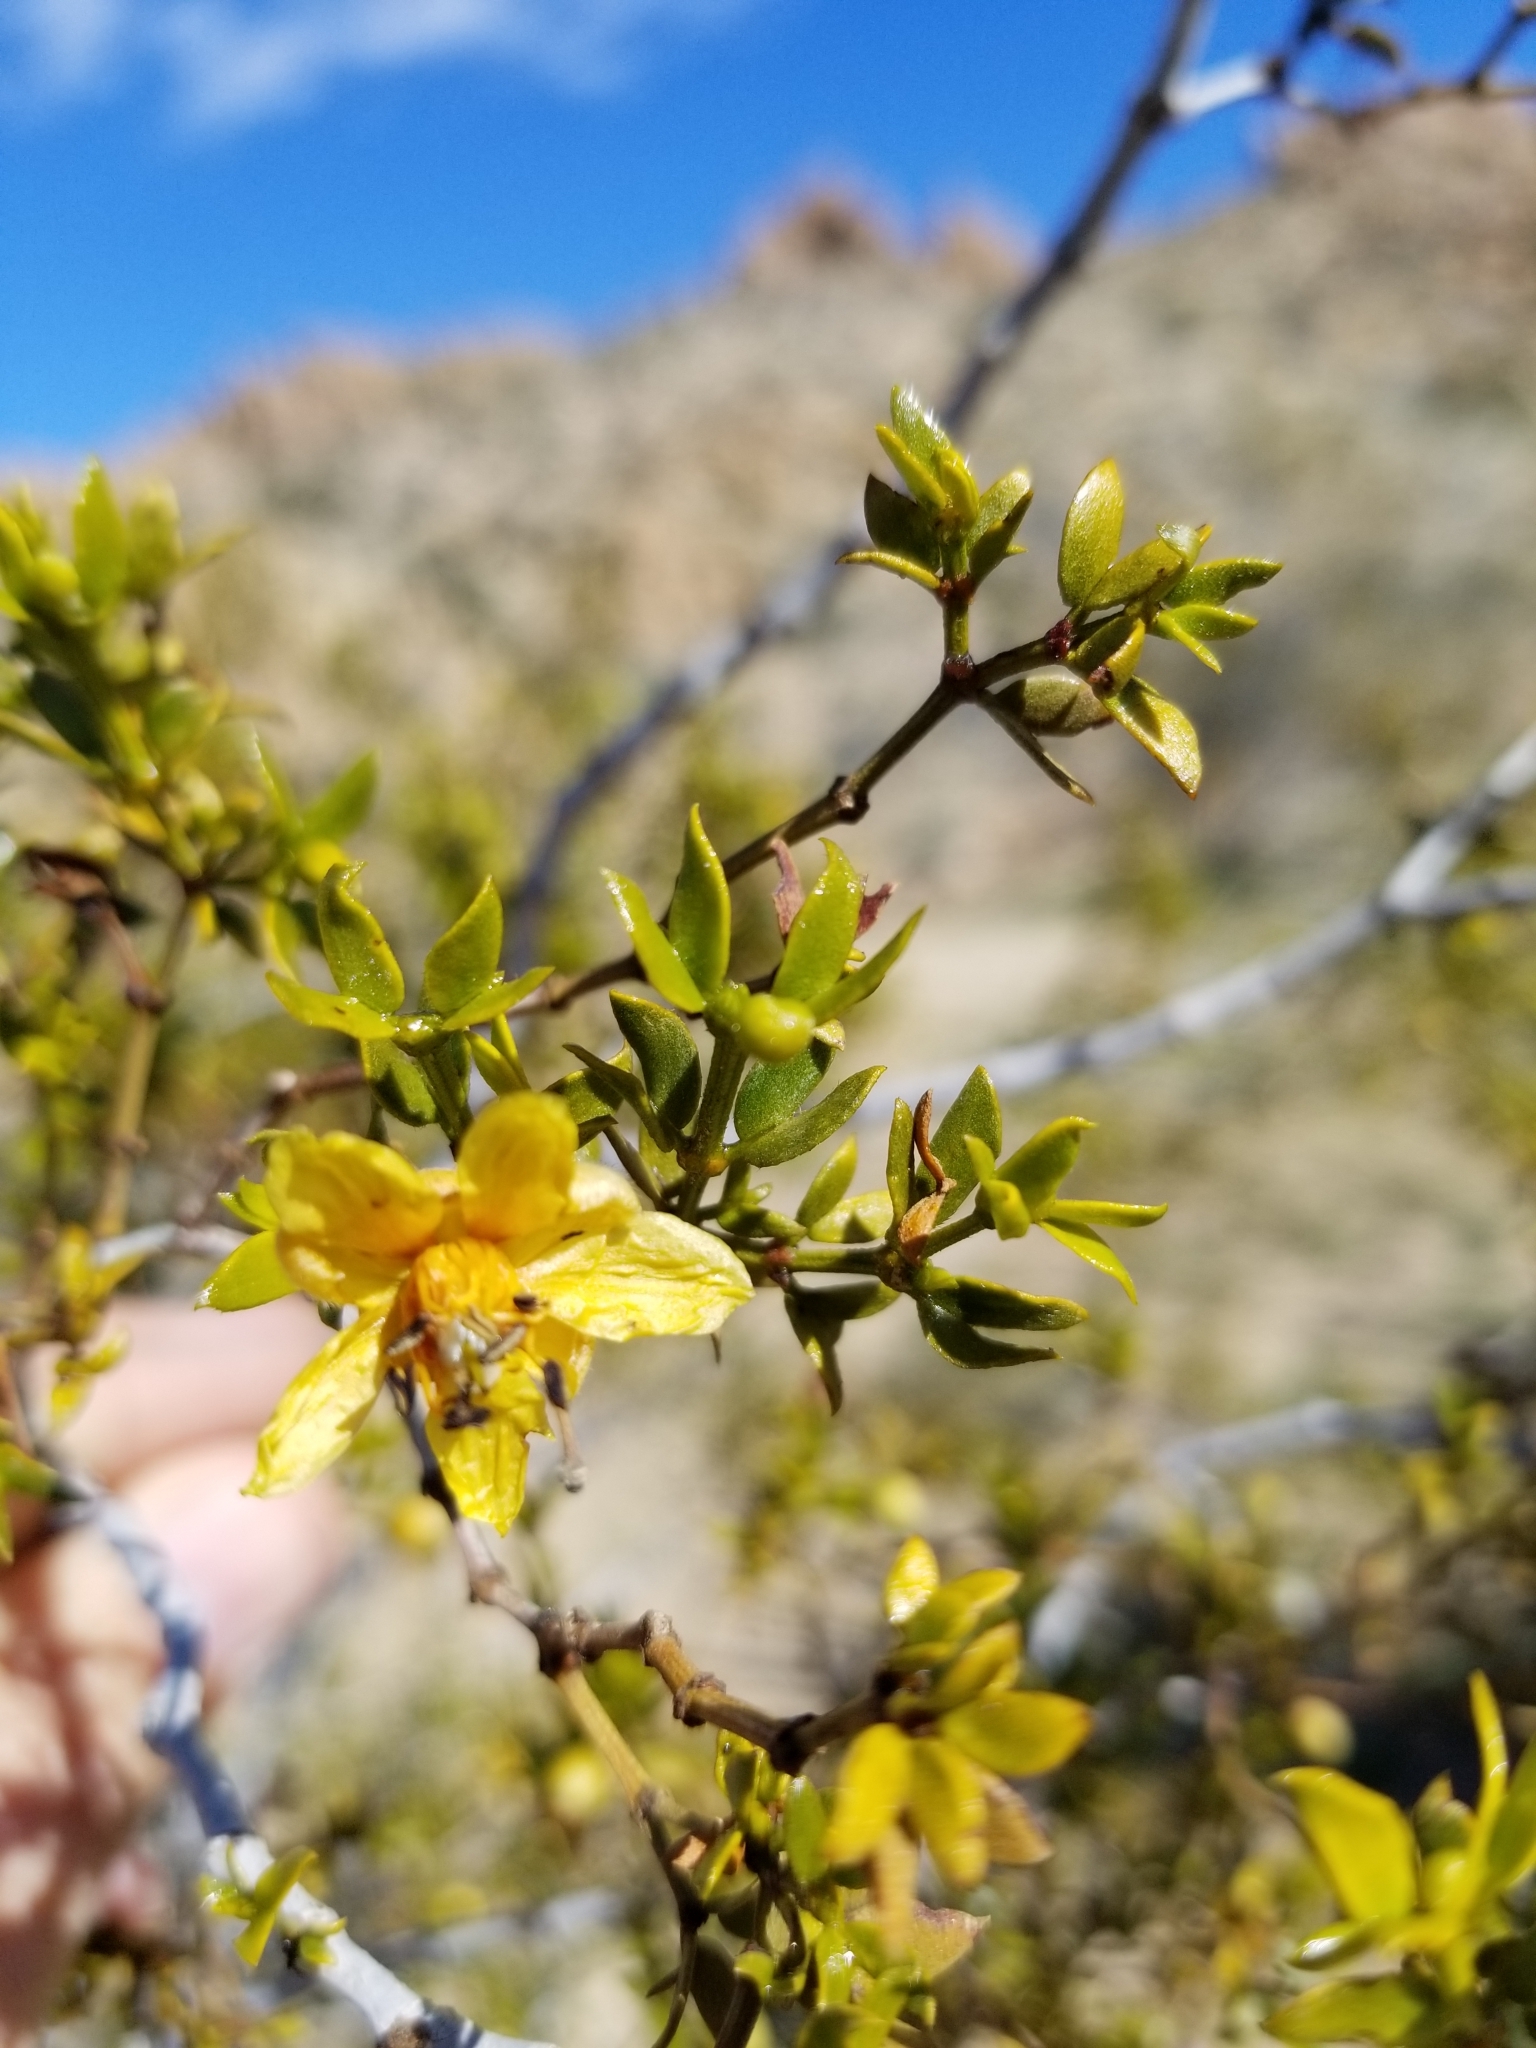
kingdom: Plantae
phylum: Tracheophyta
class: Magnoliopsida
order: Zygophyllales
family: Zygophyllaceae
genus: Larrea
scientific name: Larrea tridentata
